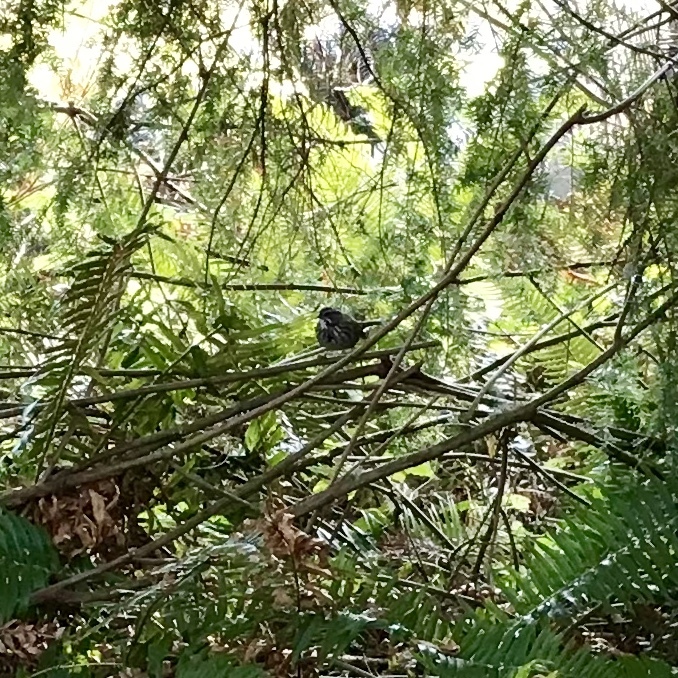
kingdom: Animalia
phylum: Chordata
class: Aves
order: Passeriformes
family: Passerellidae
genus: Melospiza
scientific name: Melospiza melodia
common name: Song sparrow
